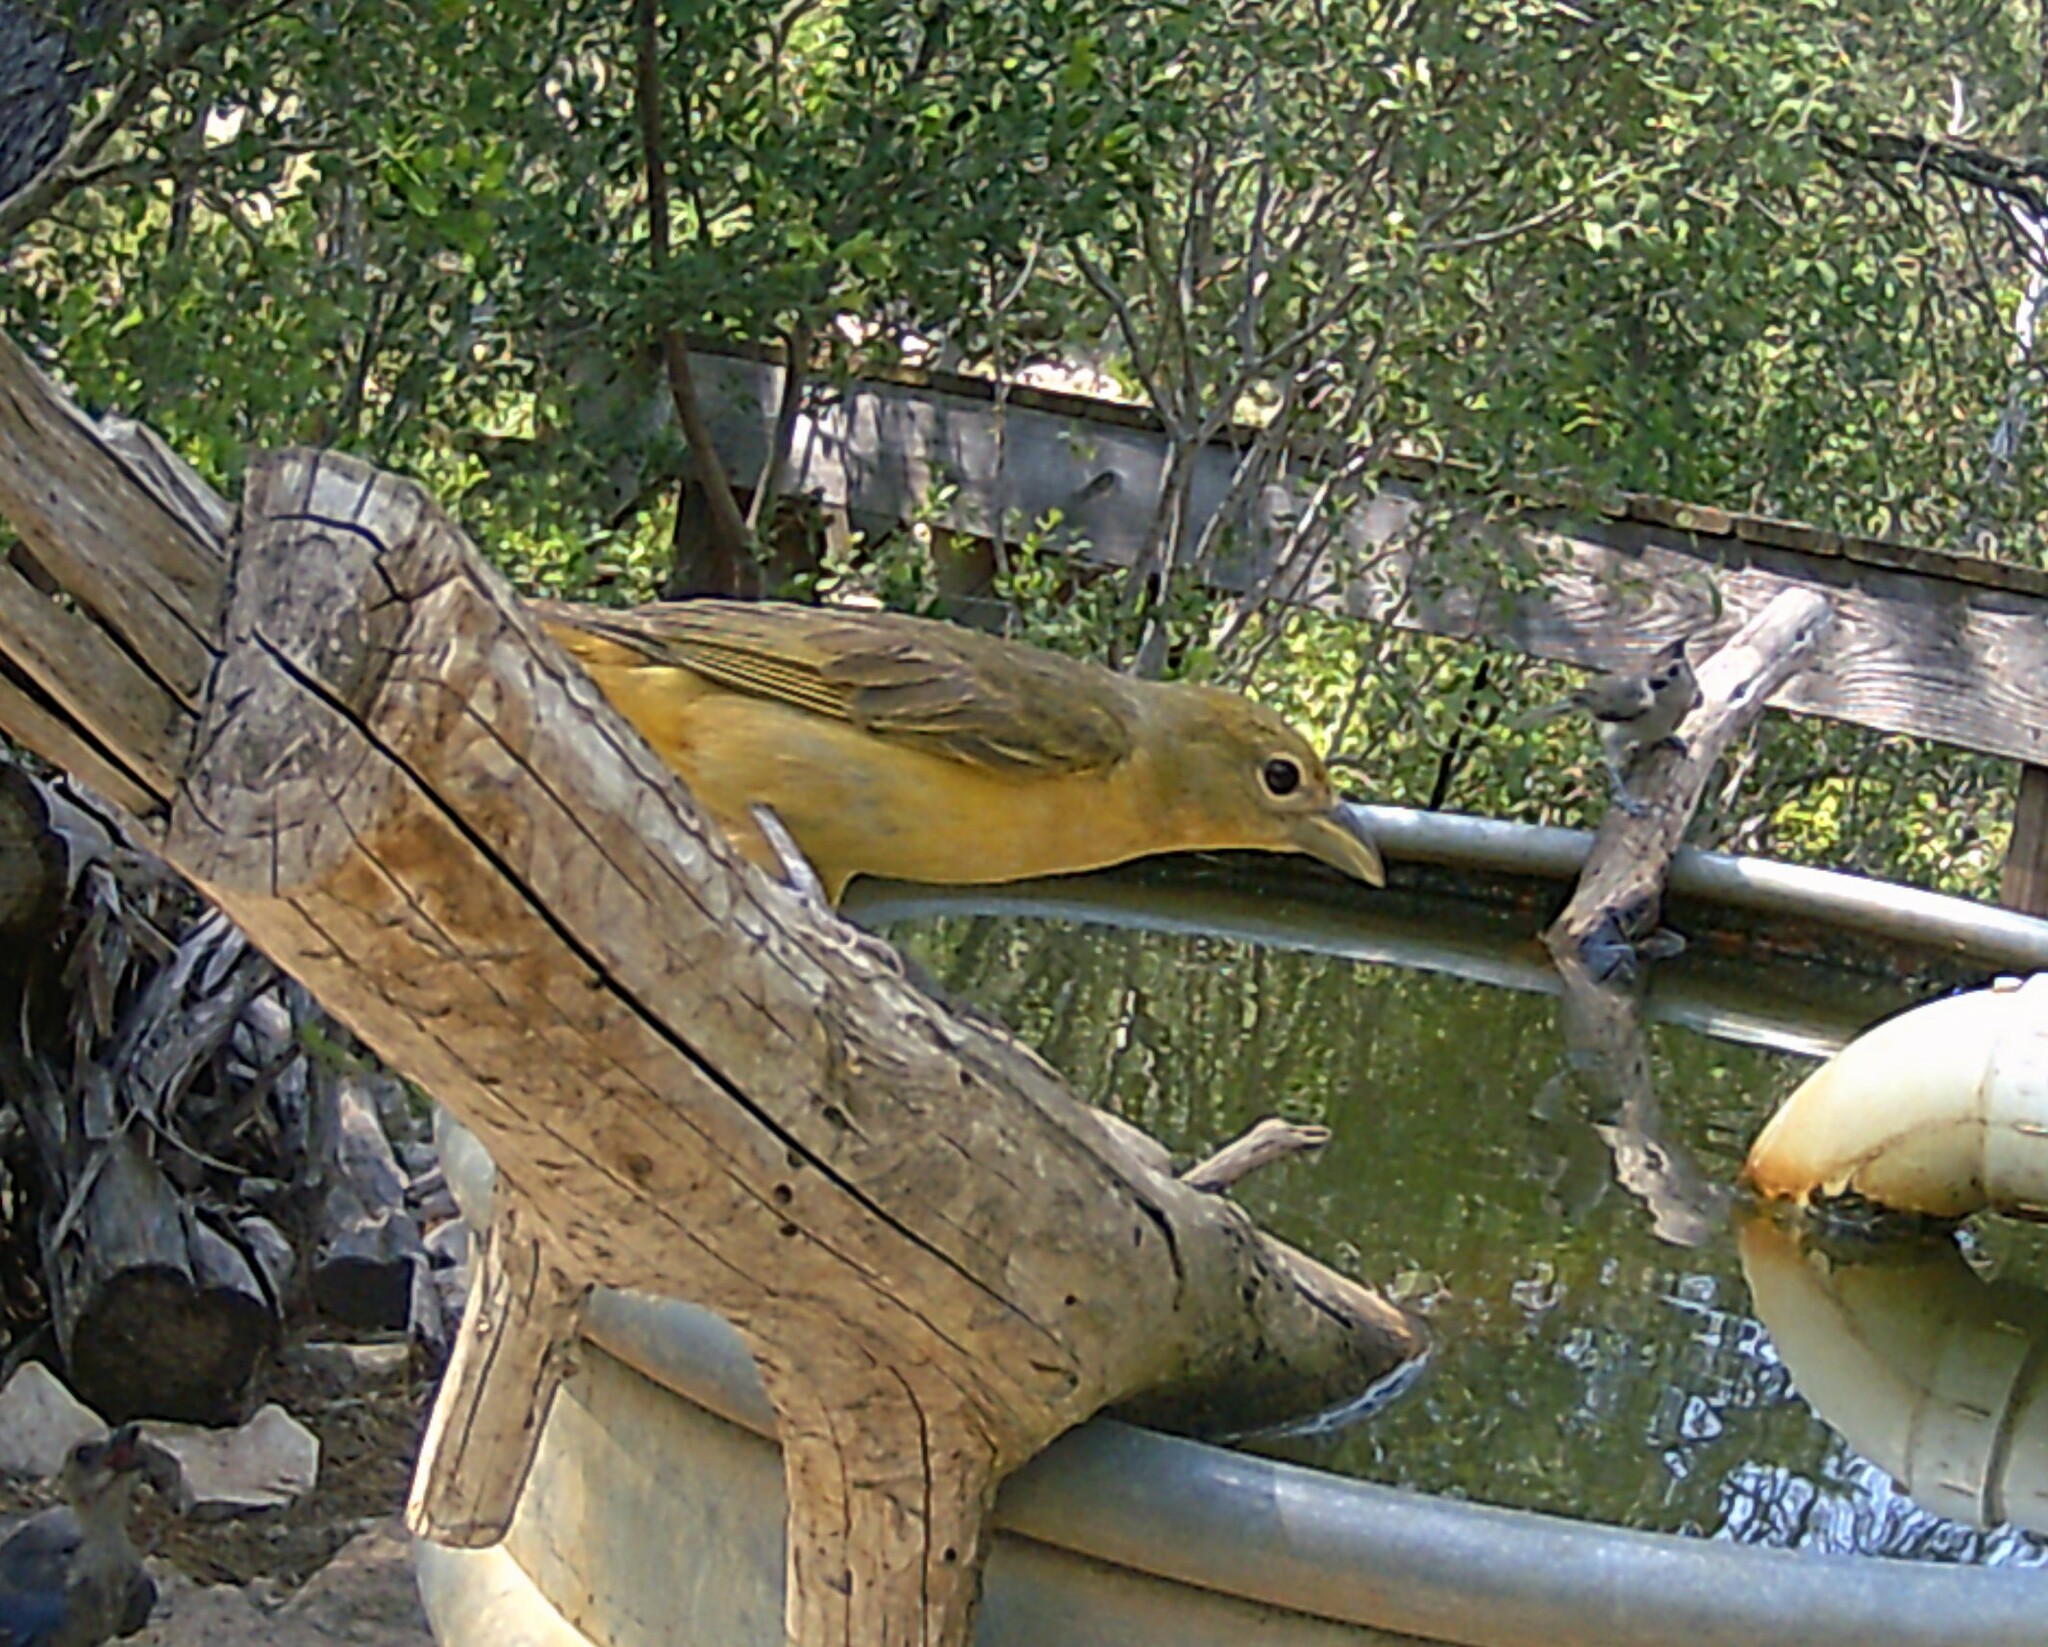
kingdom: Animalia
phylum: Chordata
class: Aves
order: Passeriformes
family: Cardinalidae
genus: Piranga
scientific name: Piranga rubra
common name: Summer tanager
